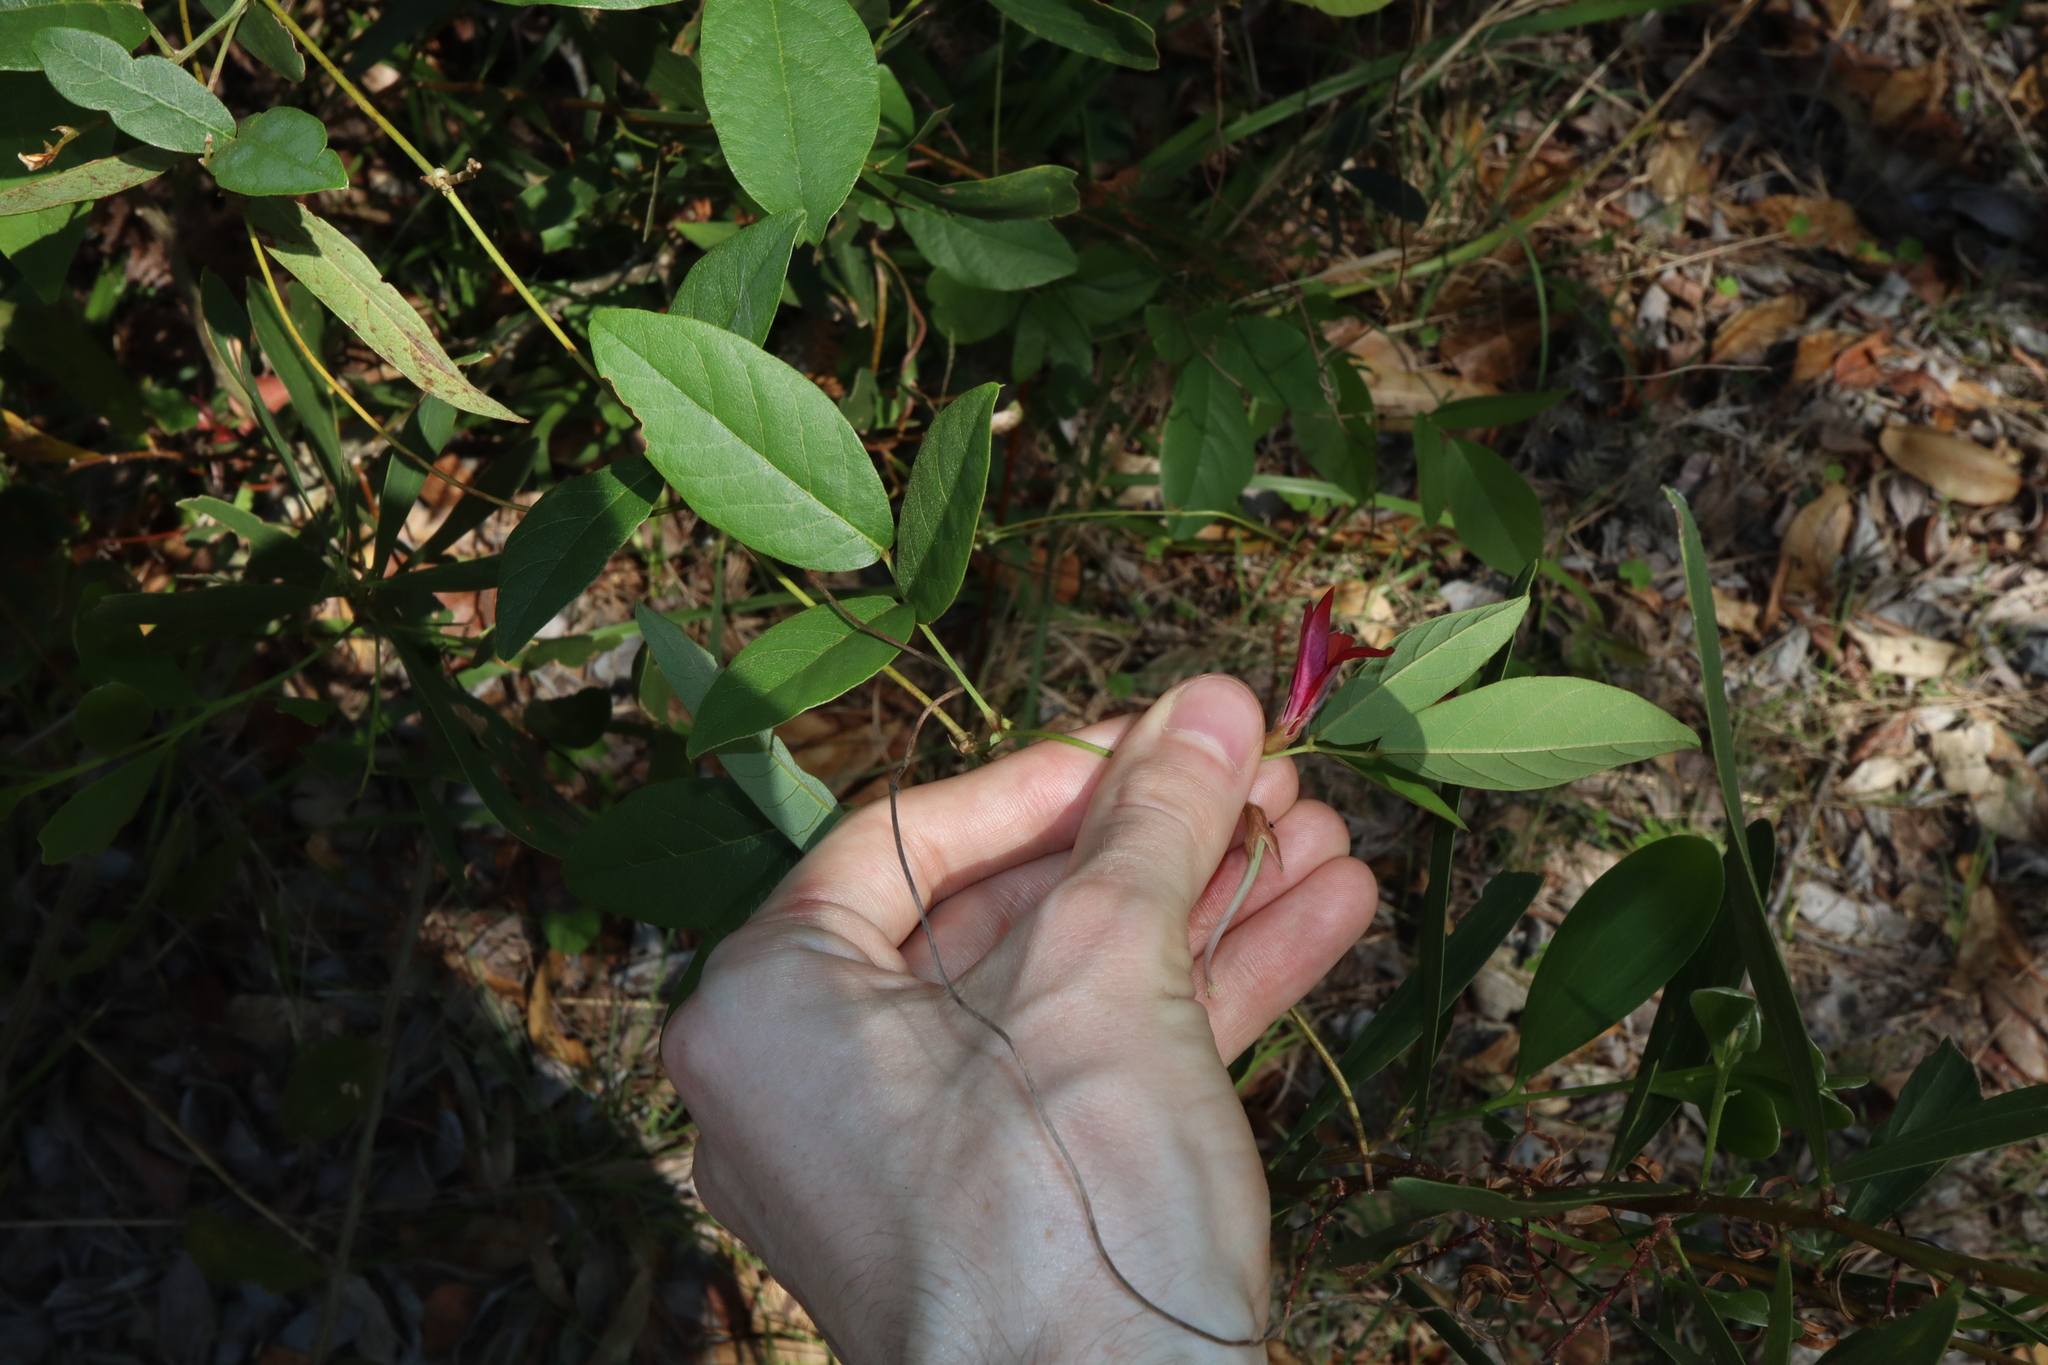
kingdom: Plantae
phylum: Tracheophyta
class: Magnoliopsida
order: Fabales
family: Fabaceae
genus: Kennedia
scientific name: Kennedia rubicunda
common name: Red kennedy-pea
